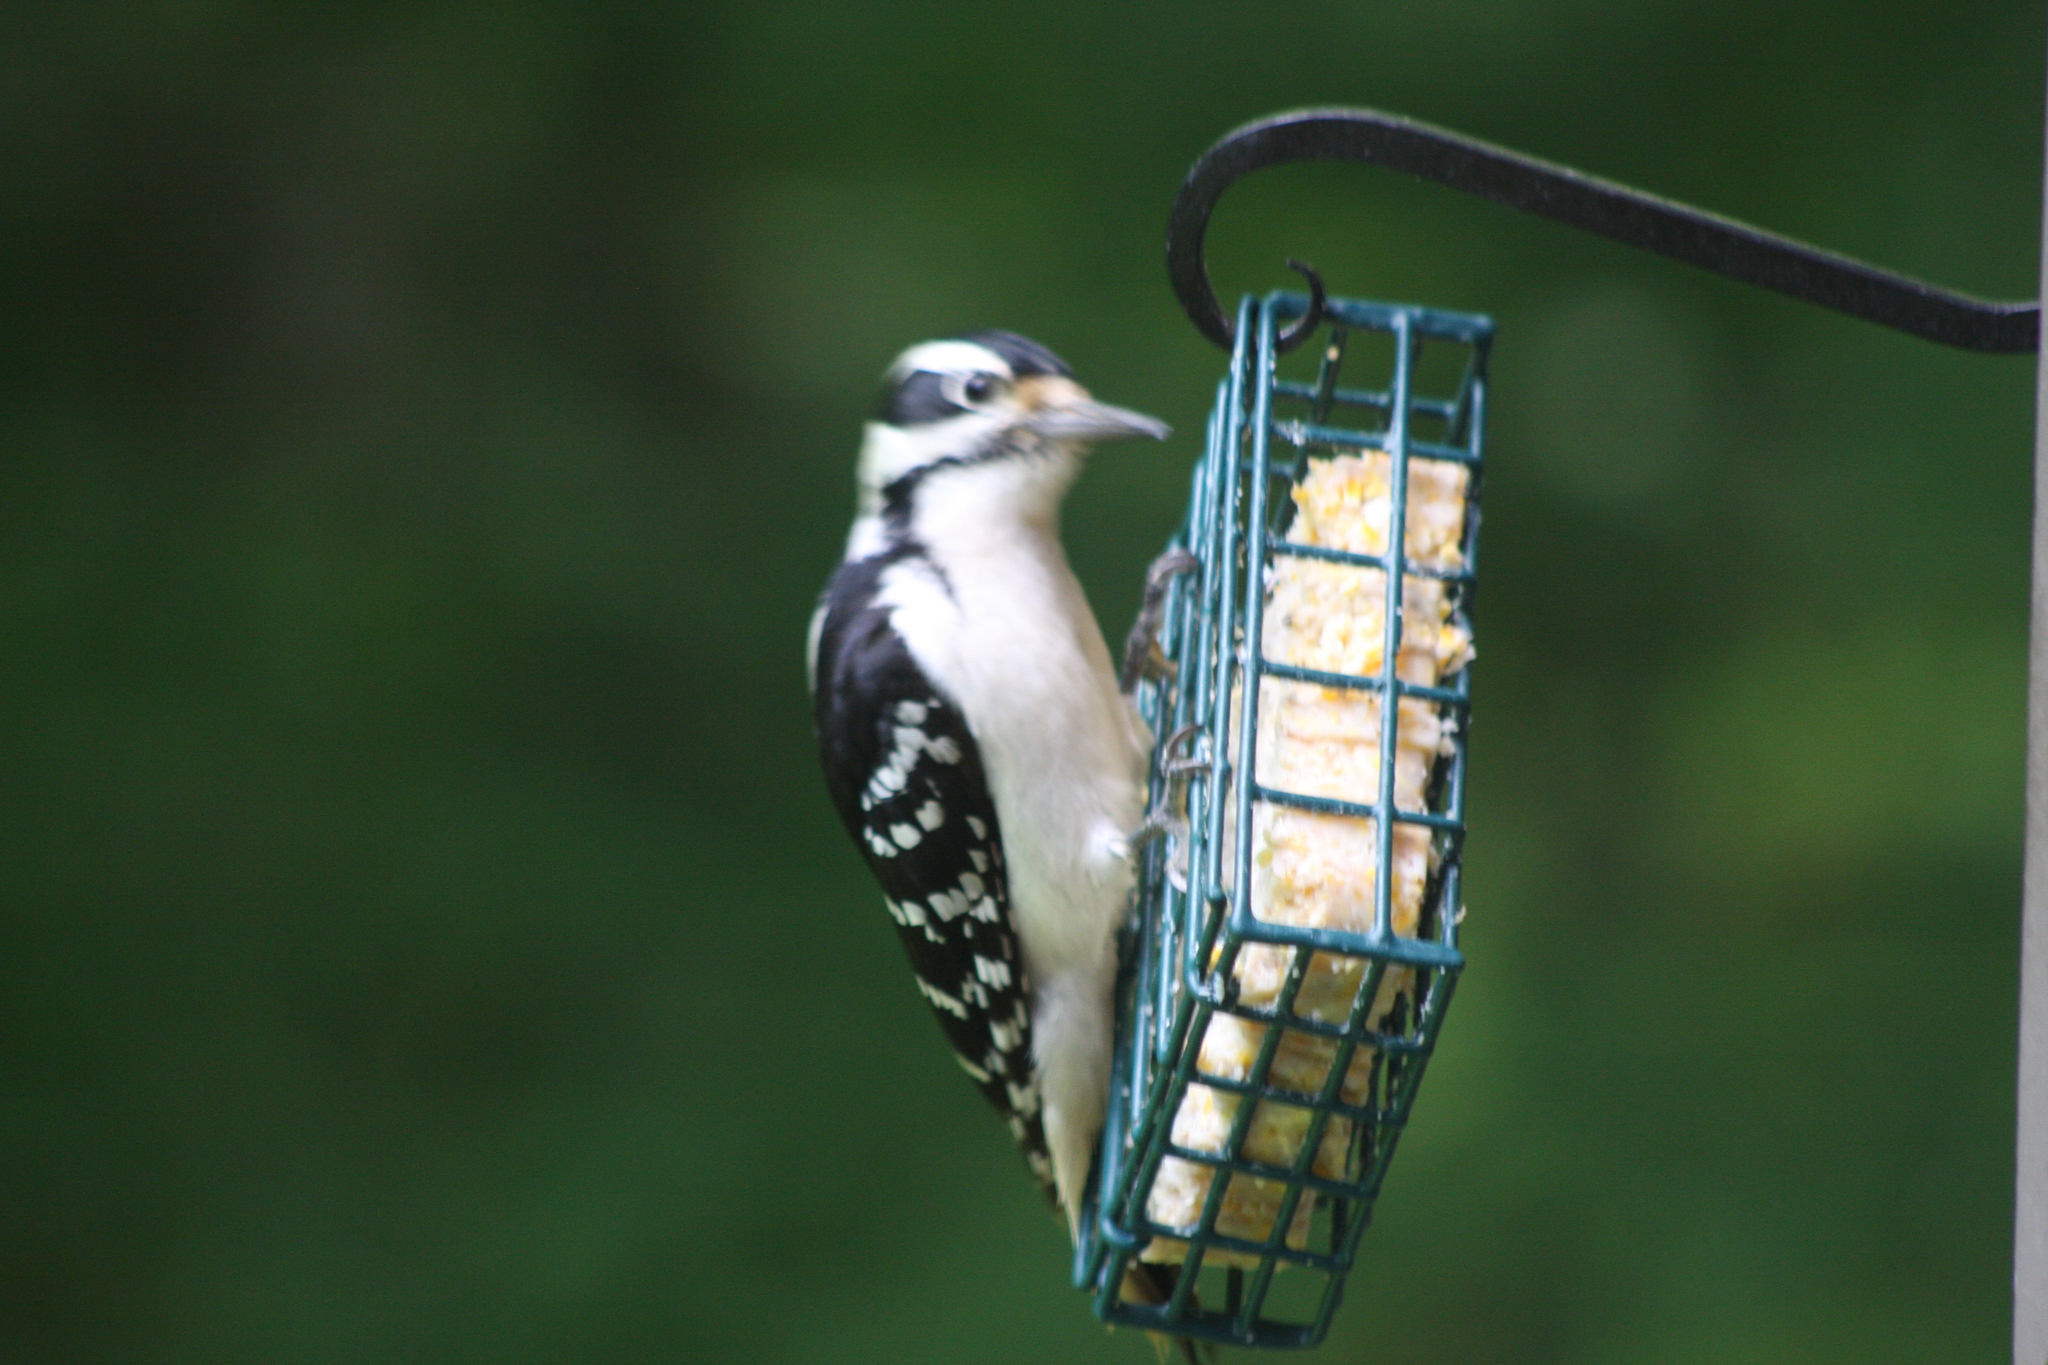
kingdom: Animalia
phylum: Chordata
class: Aves
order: Piciformes
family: Picidae
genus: Leuconotopicus
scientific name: Leuconotopicus villosus
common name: Hairy woodpecker
